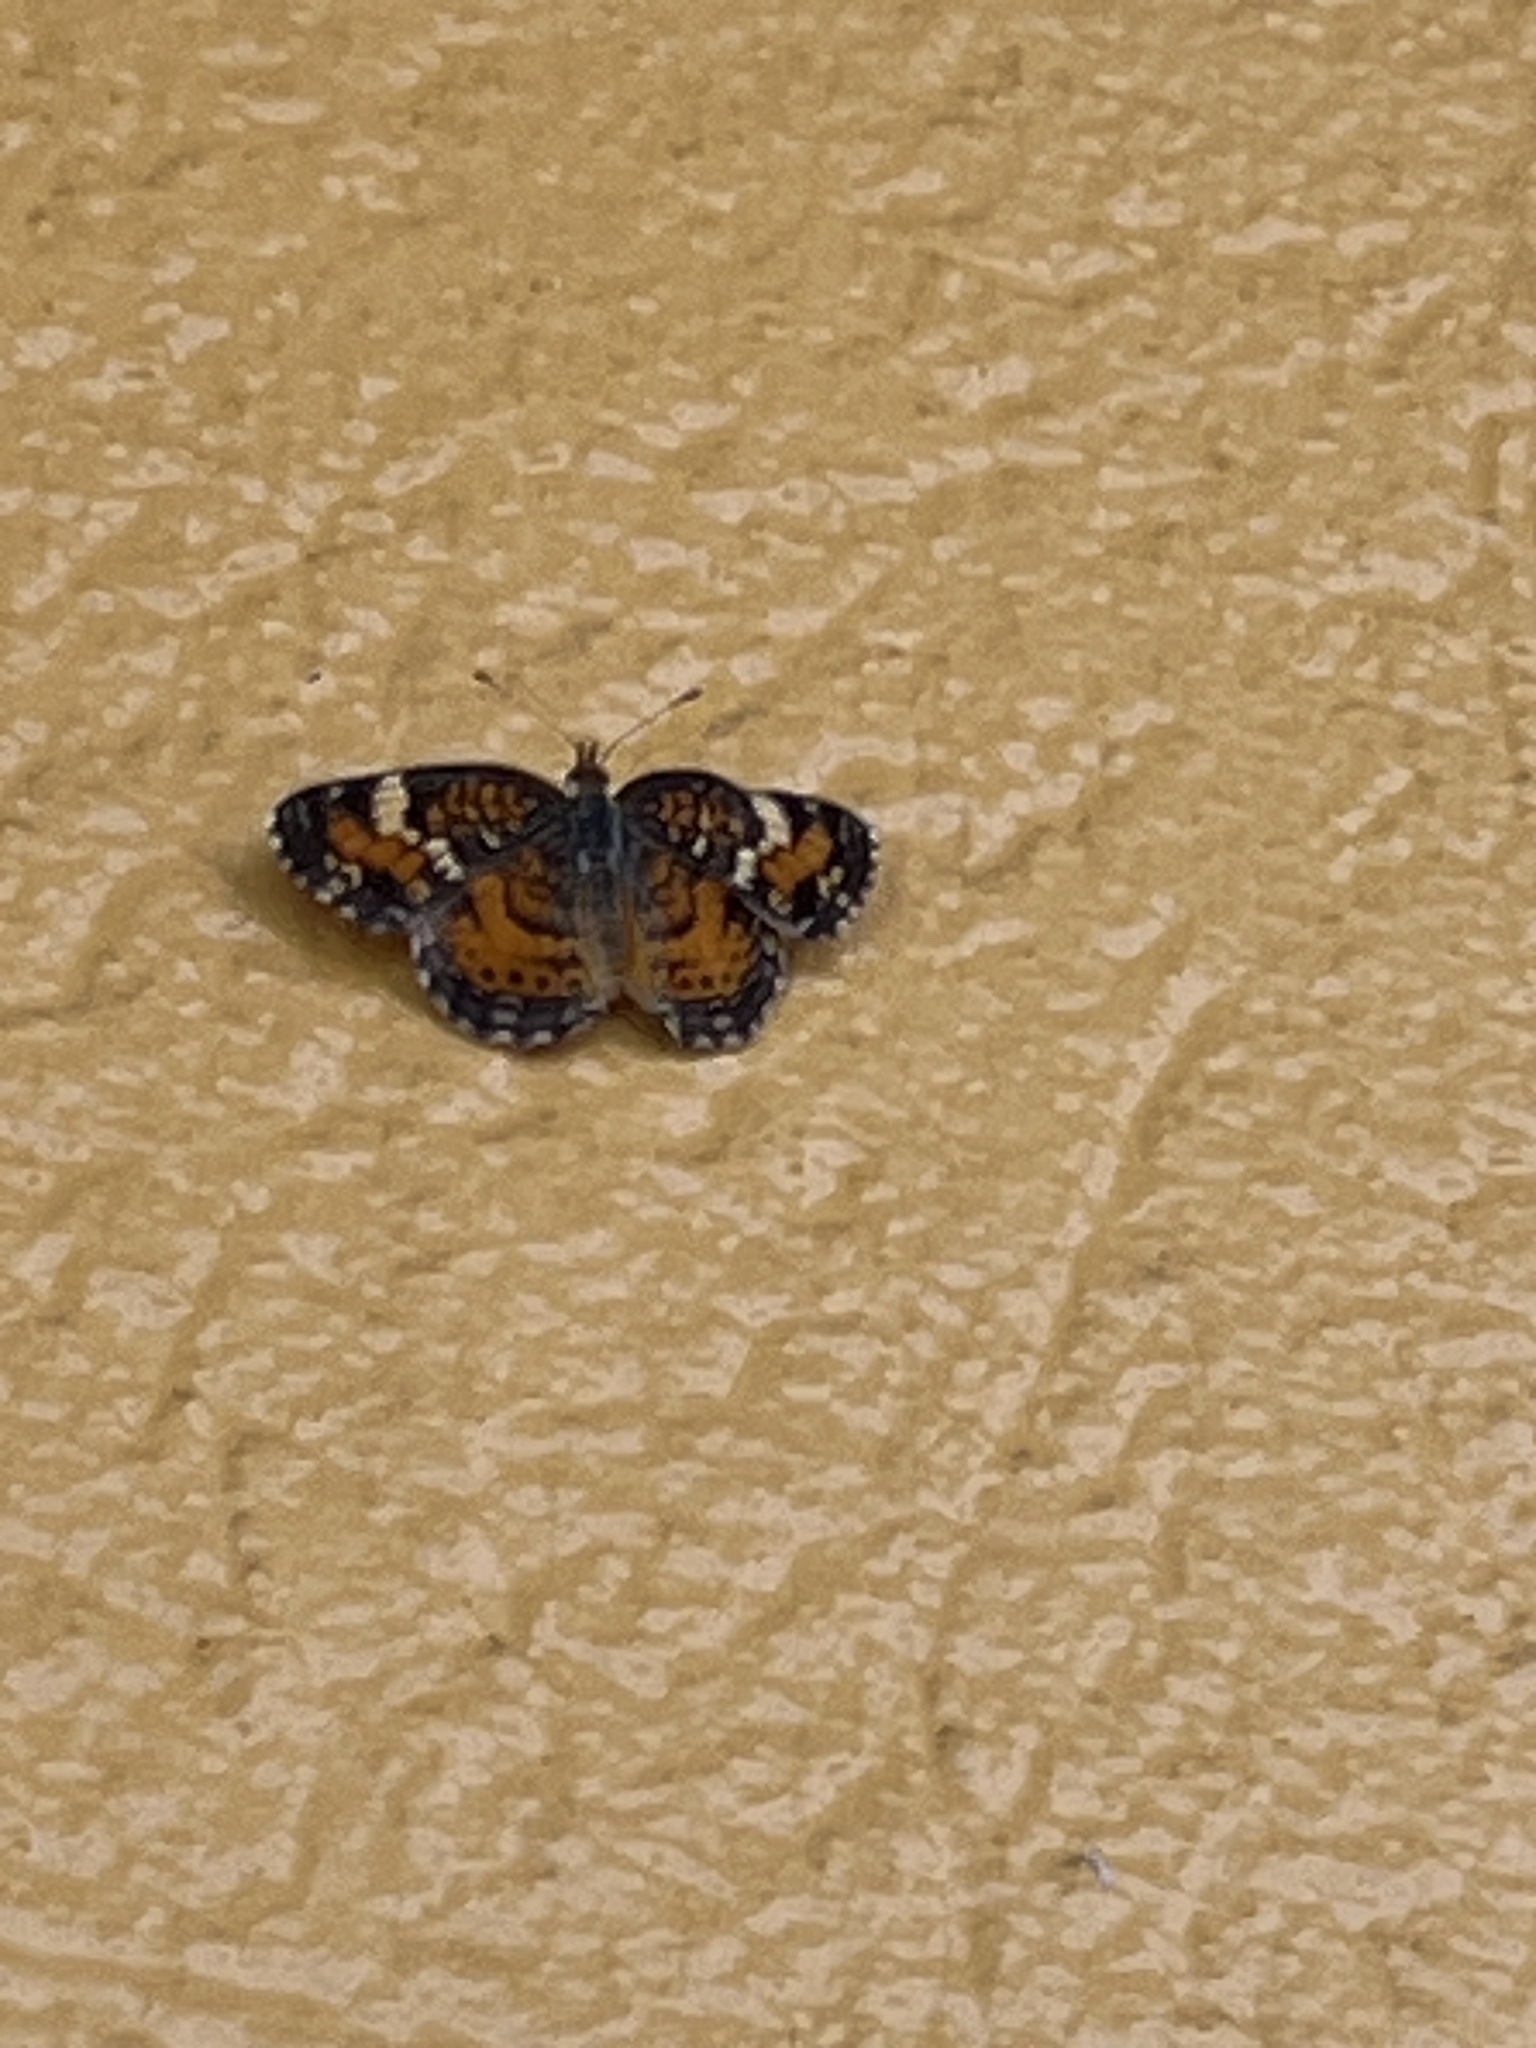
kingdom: Animalia
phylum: Arthropoda
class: Insecta
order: Lepidoptera
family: Nymphalidae
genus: Phyciodes
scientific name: Phyciodes phaon
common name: Phaon crescent
